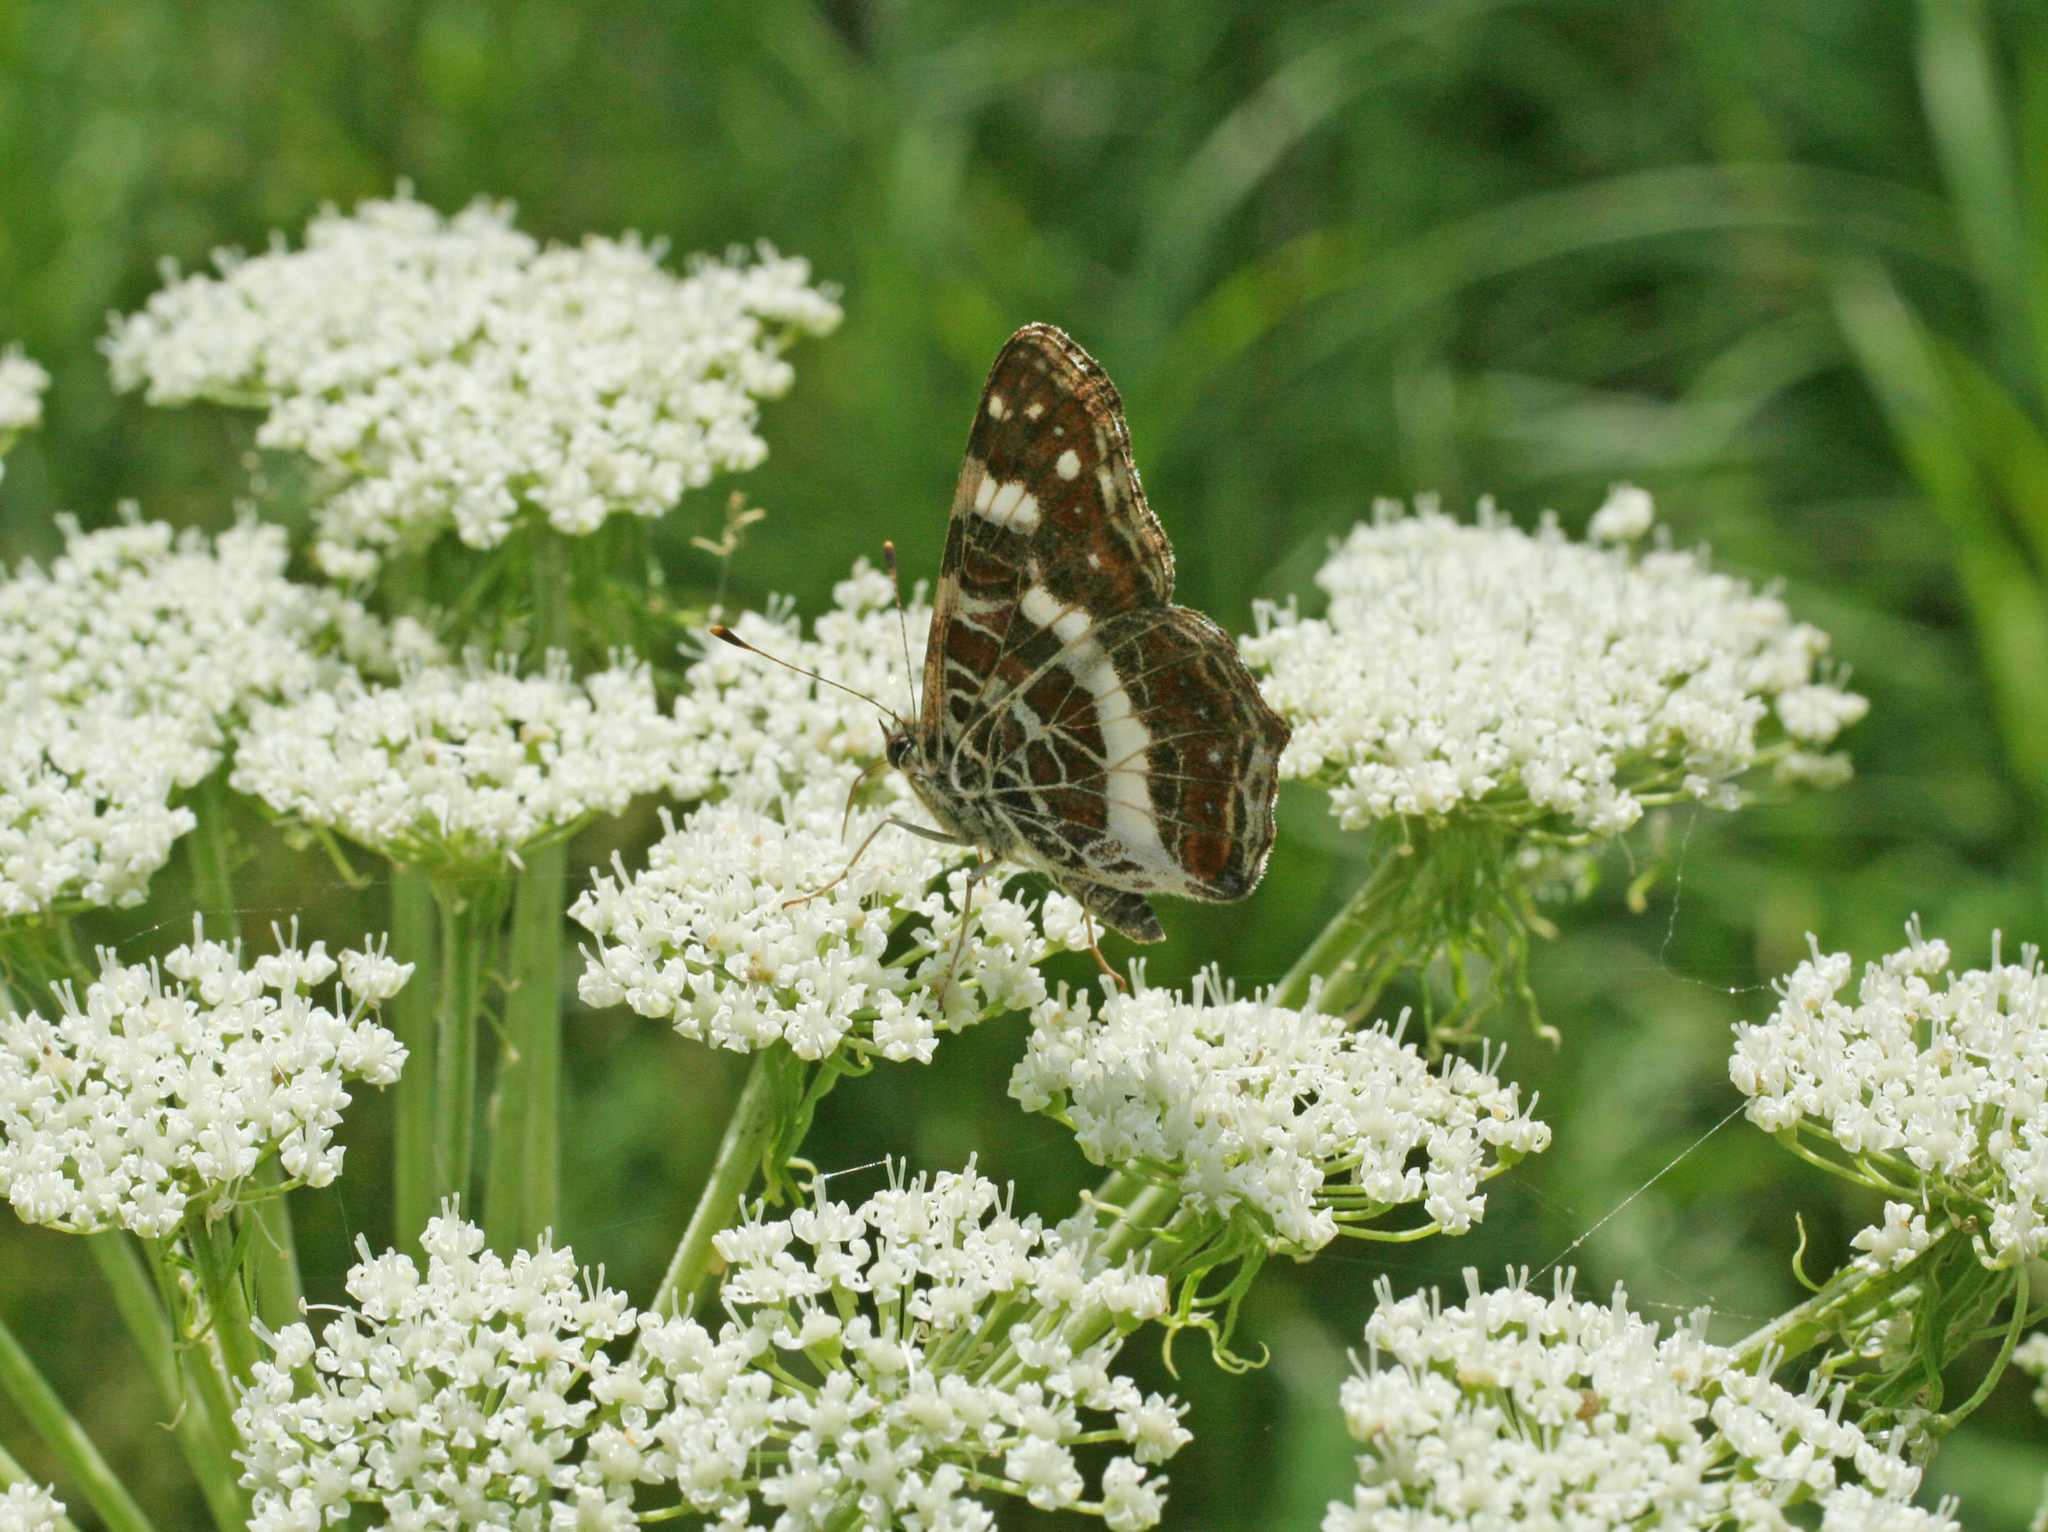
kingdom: Animalia
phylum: Arthropoda
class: Insecta
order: Lepidoptera
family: Nymphalidae
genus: Araschnia
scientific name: Araschnia levana
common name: Map butterfly
